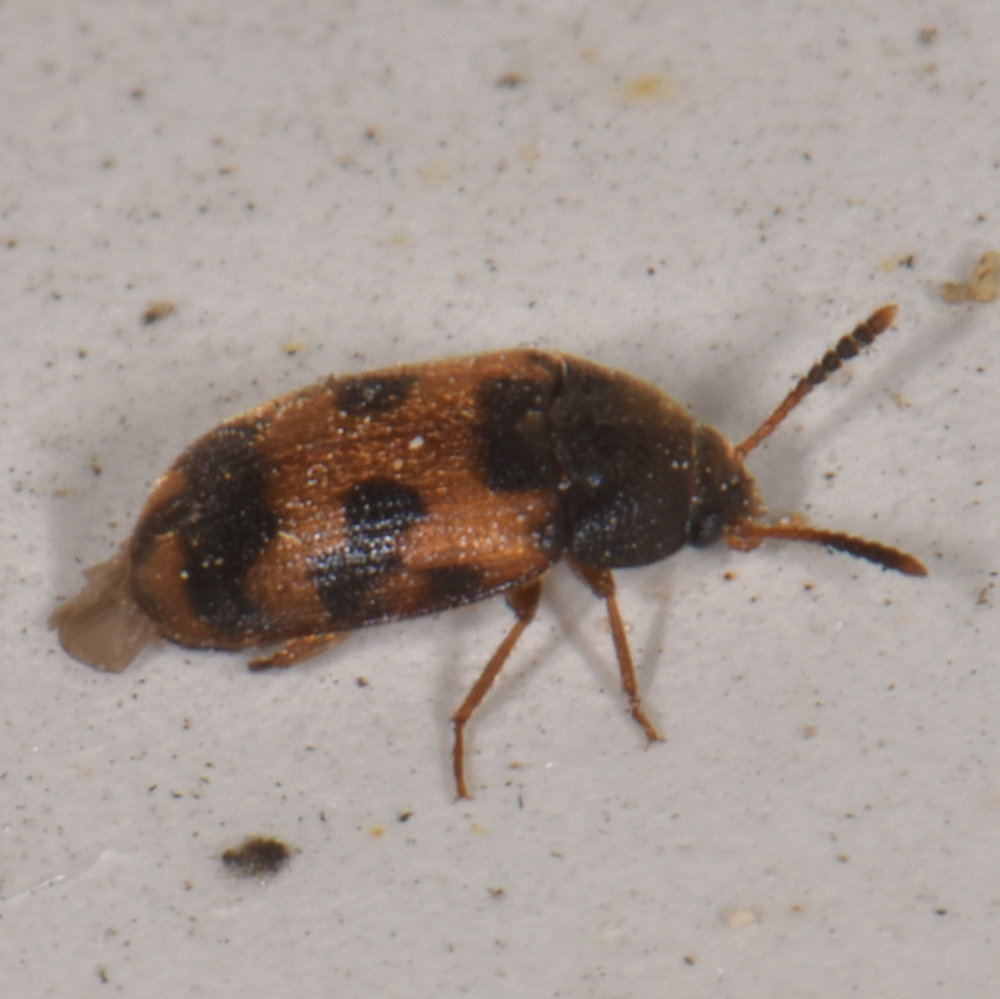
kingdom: Animalia
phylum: Arthropoda
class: Insecta
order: Coleoptera
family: Mycetophagidae
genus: Mycetophagus
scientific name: Mycetophagus punctatus
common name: Hairy fungus beetle
